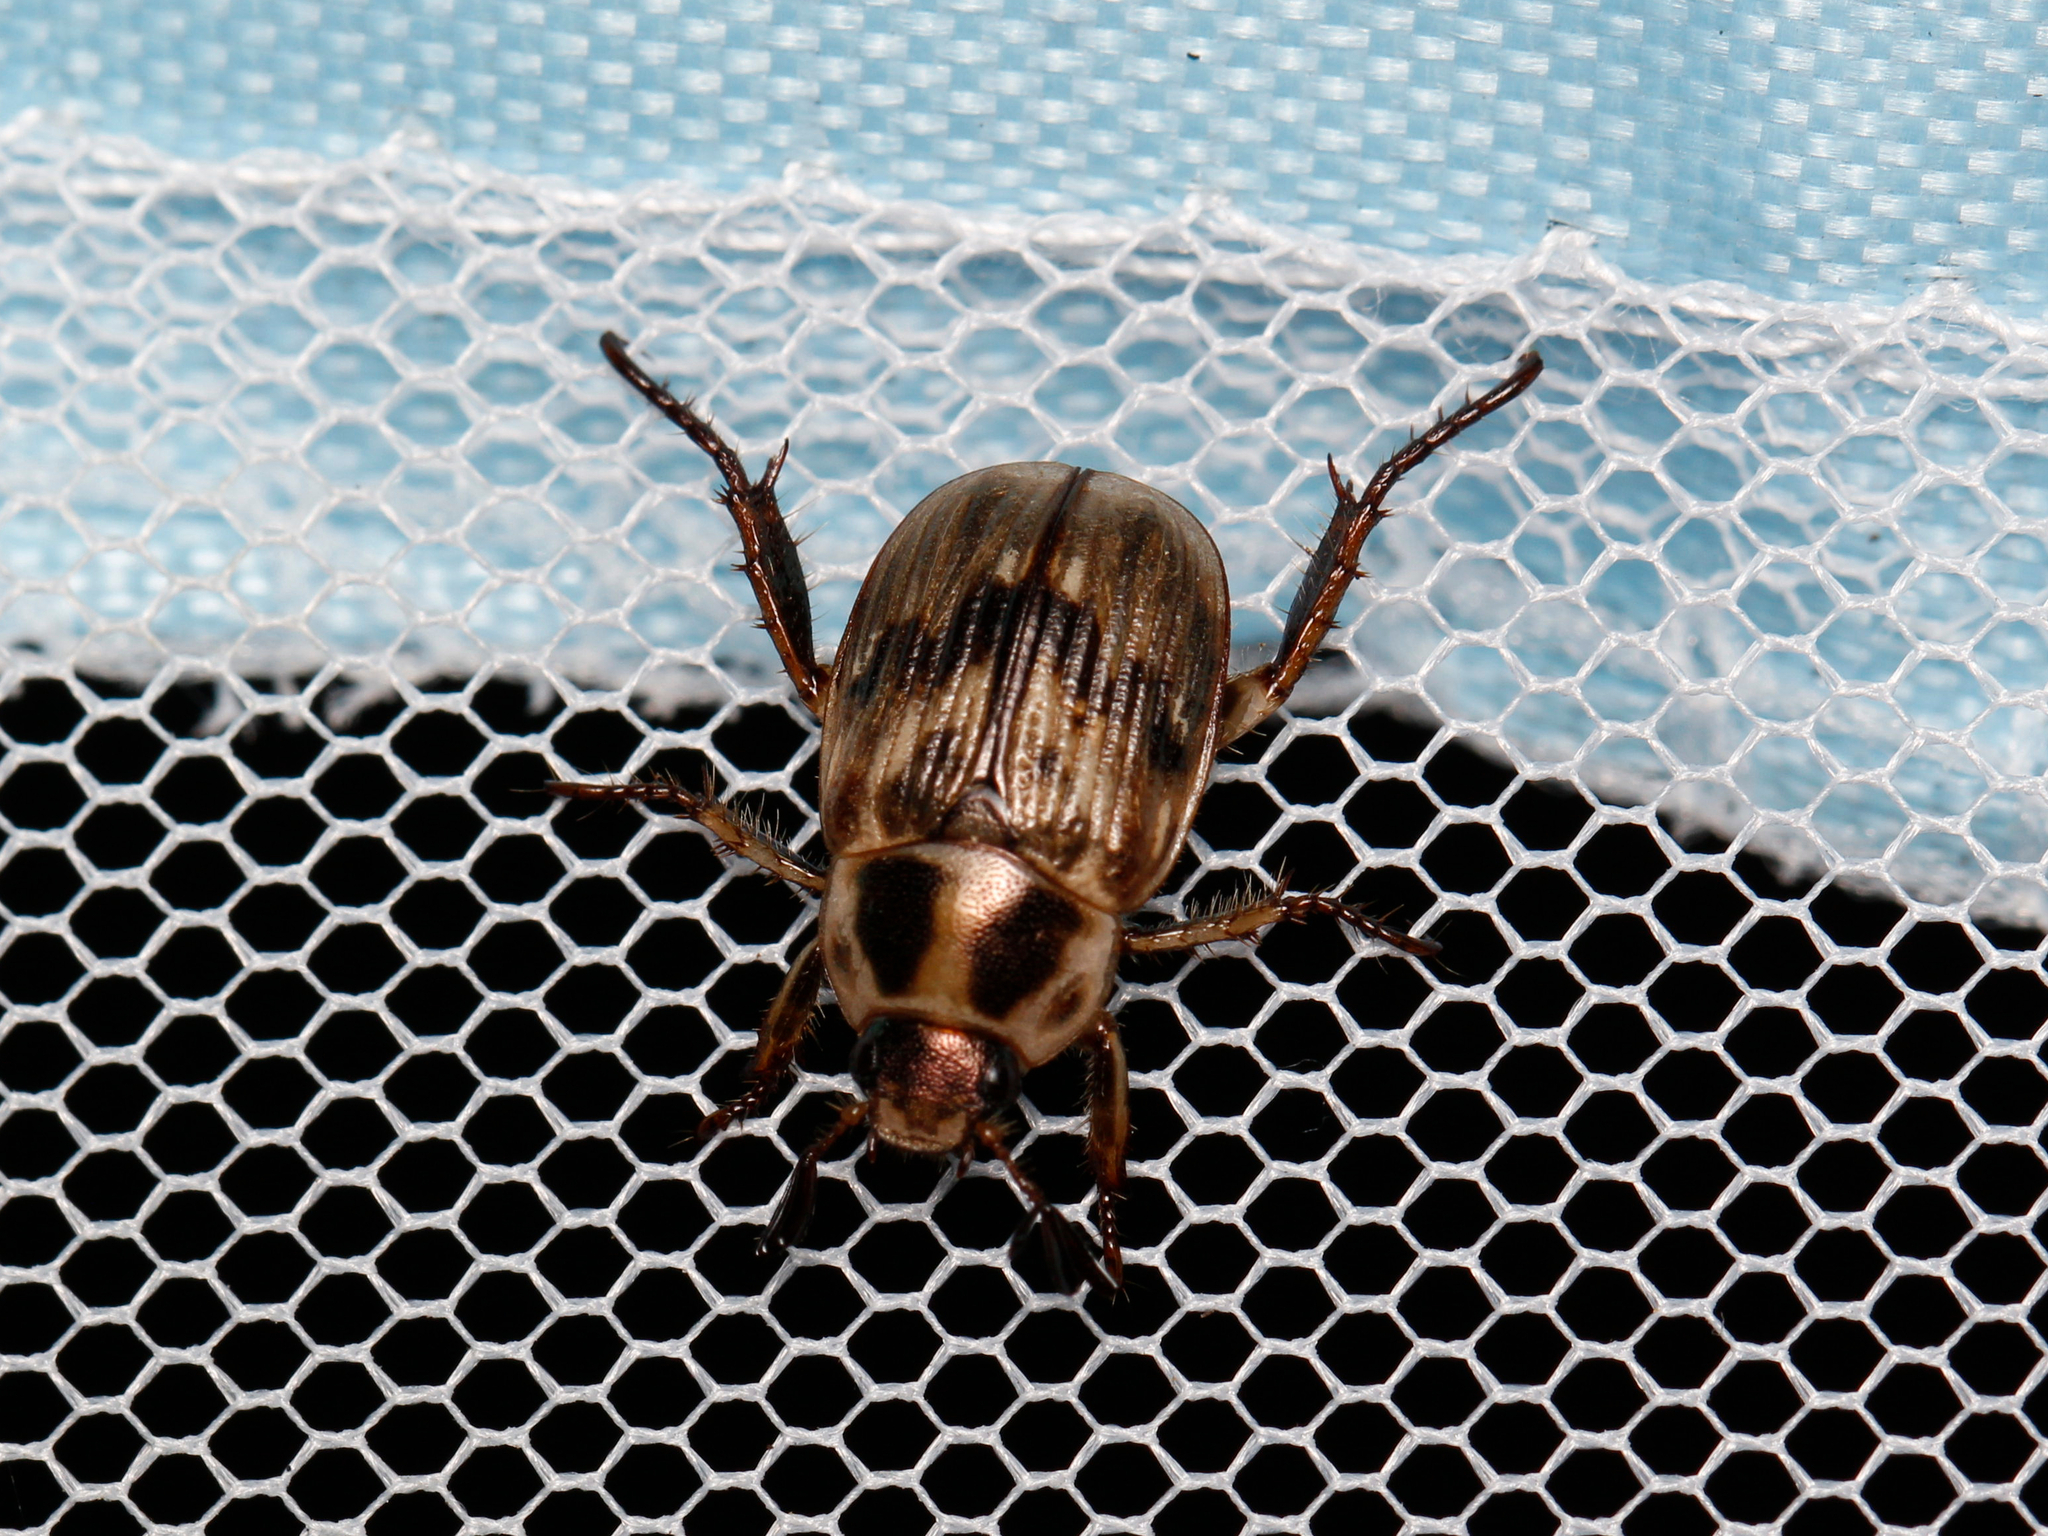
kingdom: Animalia
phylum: Arthropoda
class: Insecta
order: Coleoptera
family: Scarabaeidae
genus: Exomala
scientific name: Exomala orientalis
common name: Oriental beetle
